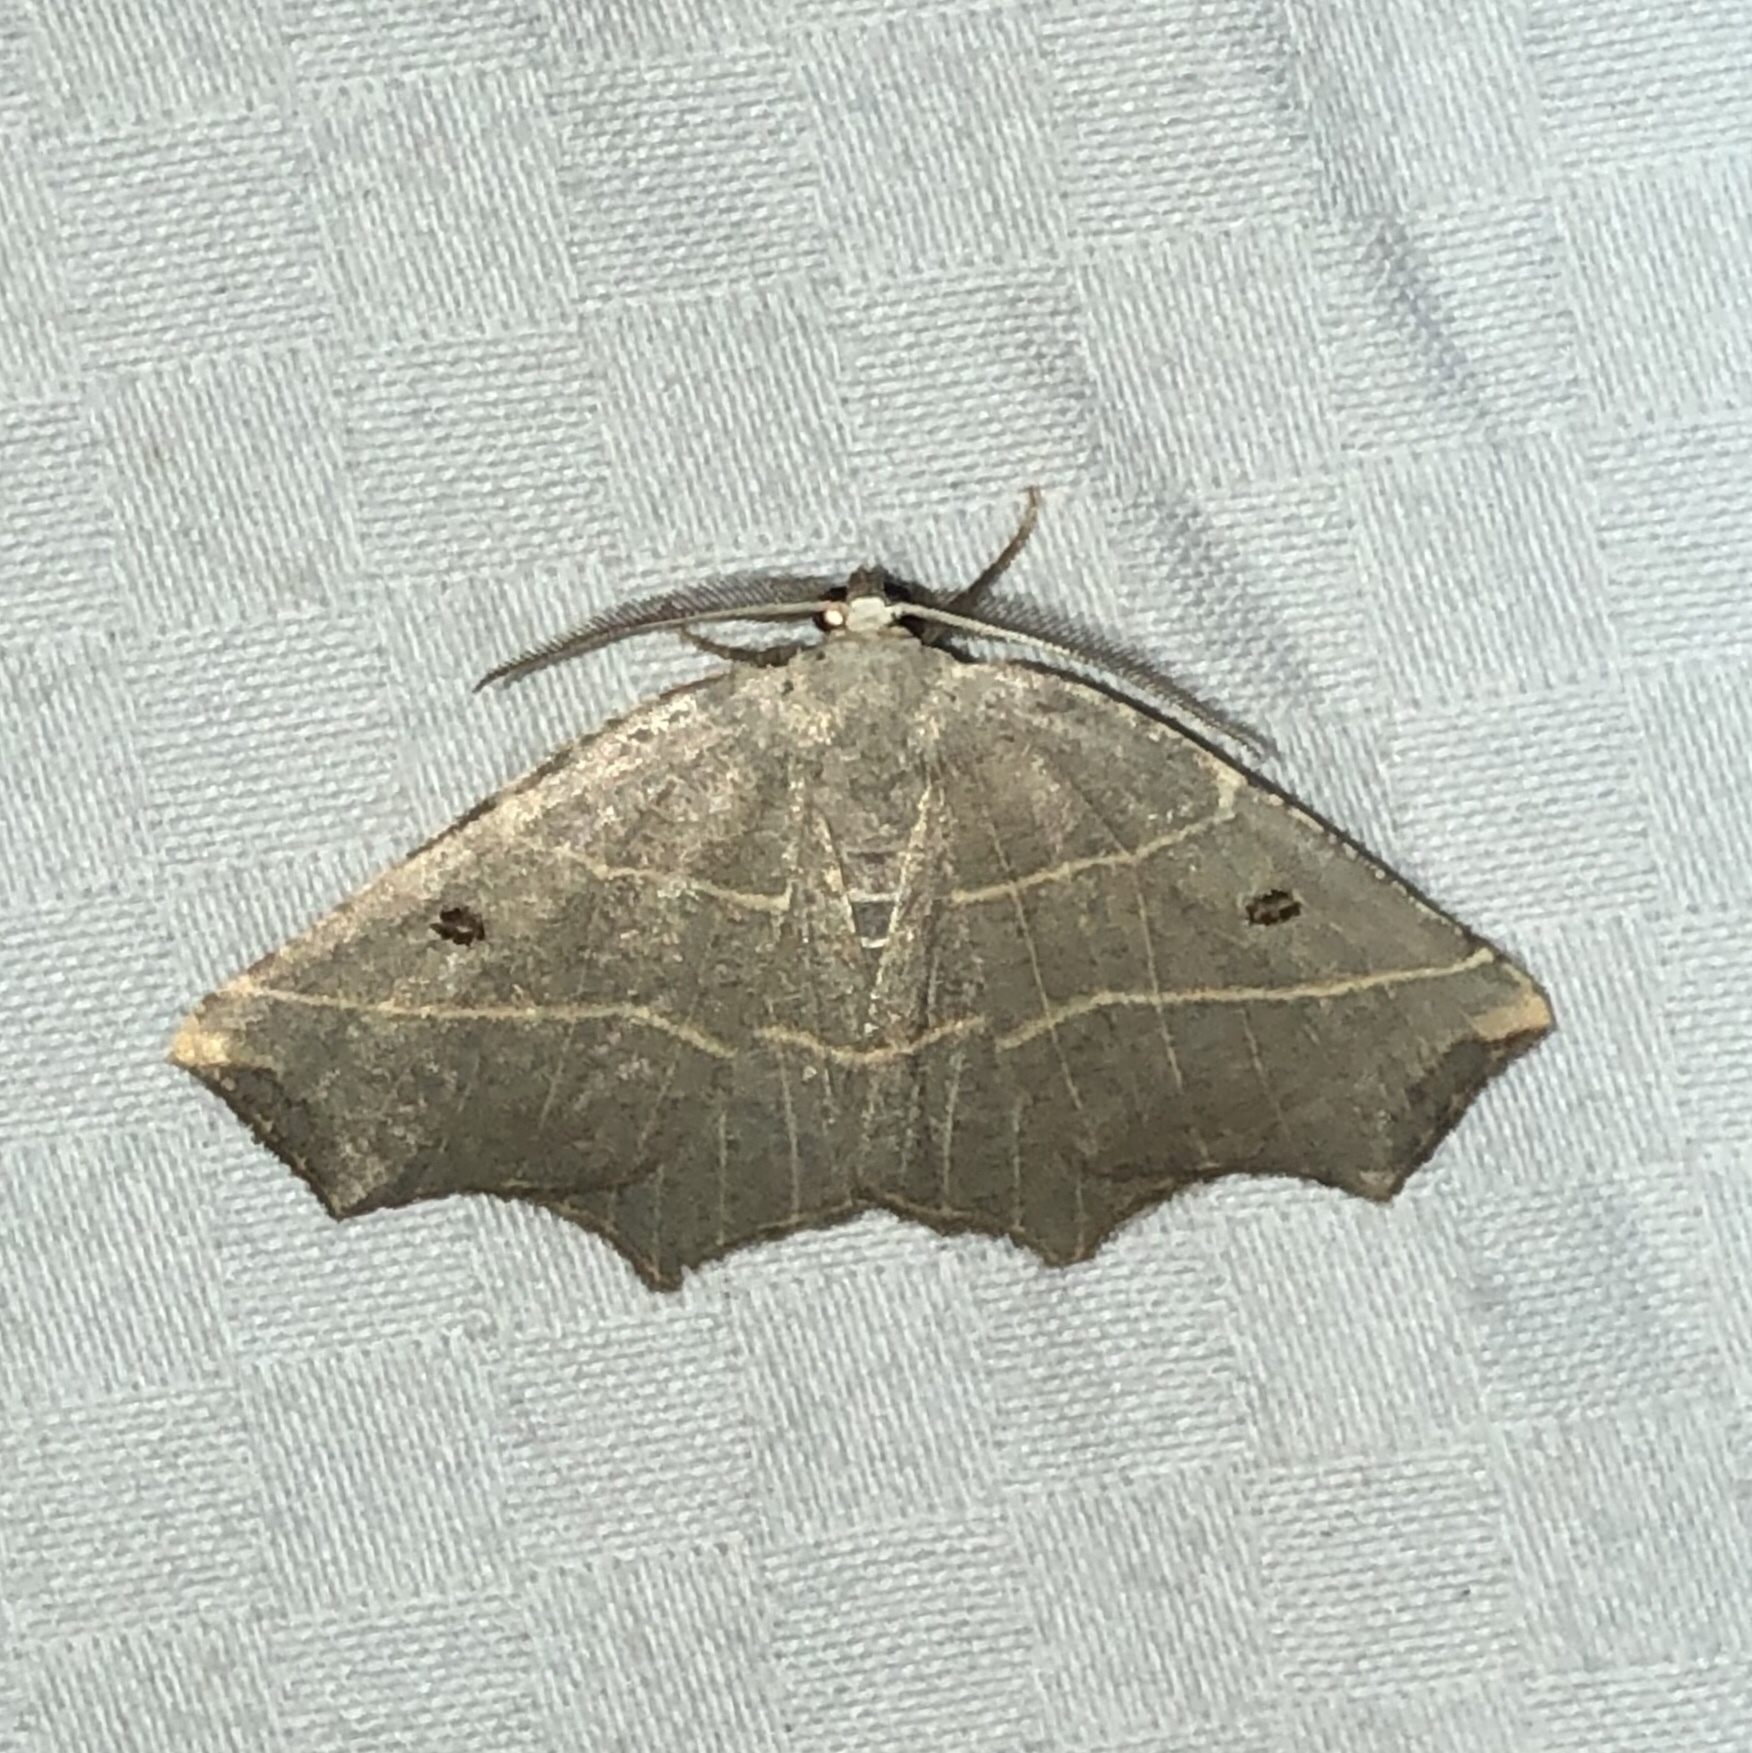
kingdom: Animalia
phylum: Arthropoda
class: Insecta
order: Lepidoptera
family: Geometridae
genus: Metanema
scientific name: Metanema inatomaria
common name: Pale metanema
